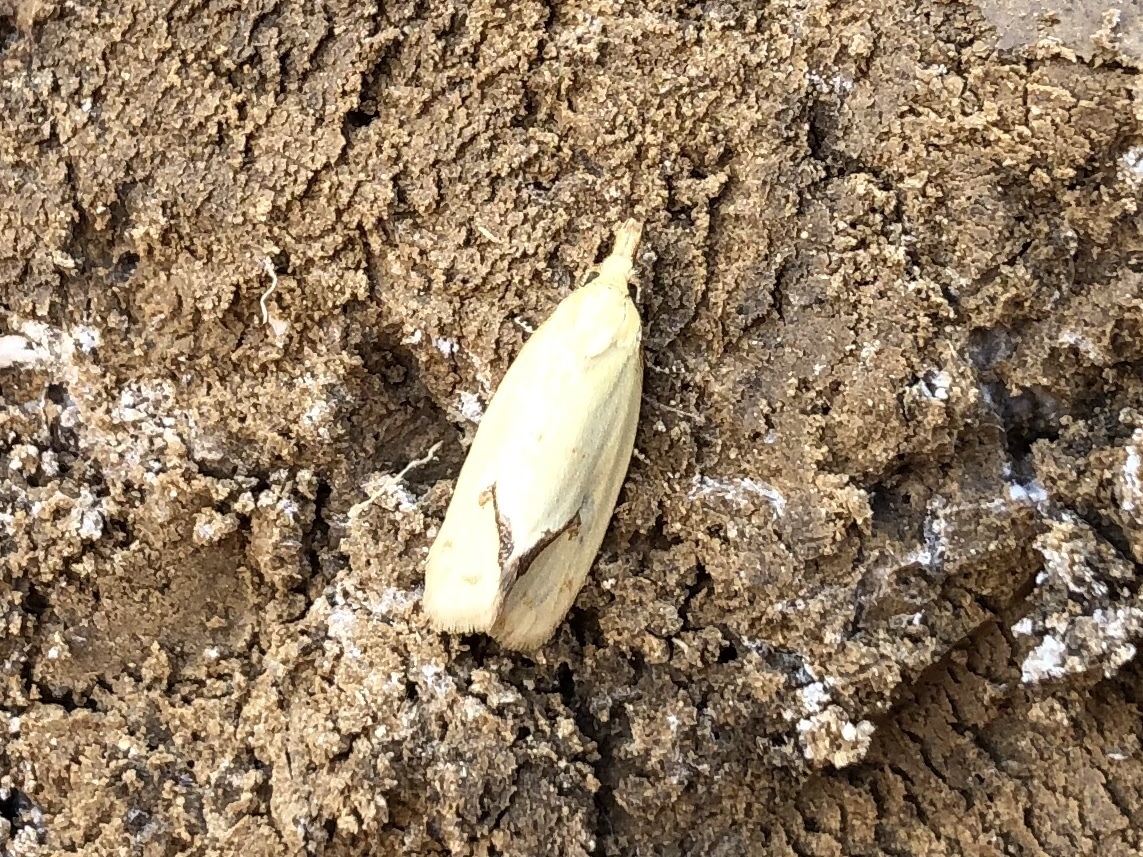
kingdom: Animalia
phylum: Arthropoda
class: Insecta
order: Lepidoptera
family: Tortricidae
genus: Agapeta
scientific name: Agapeta hamana
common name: Common yellow conch
